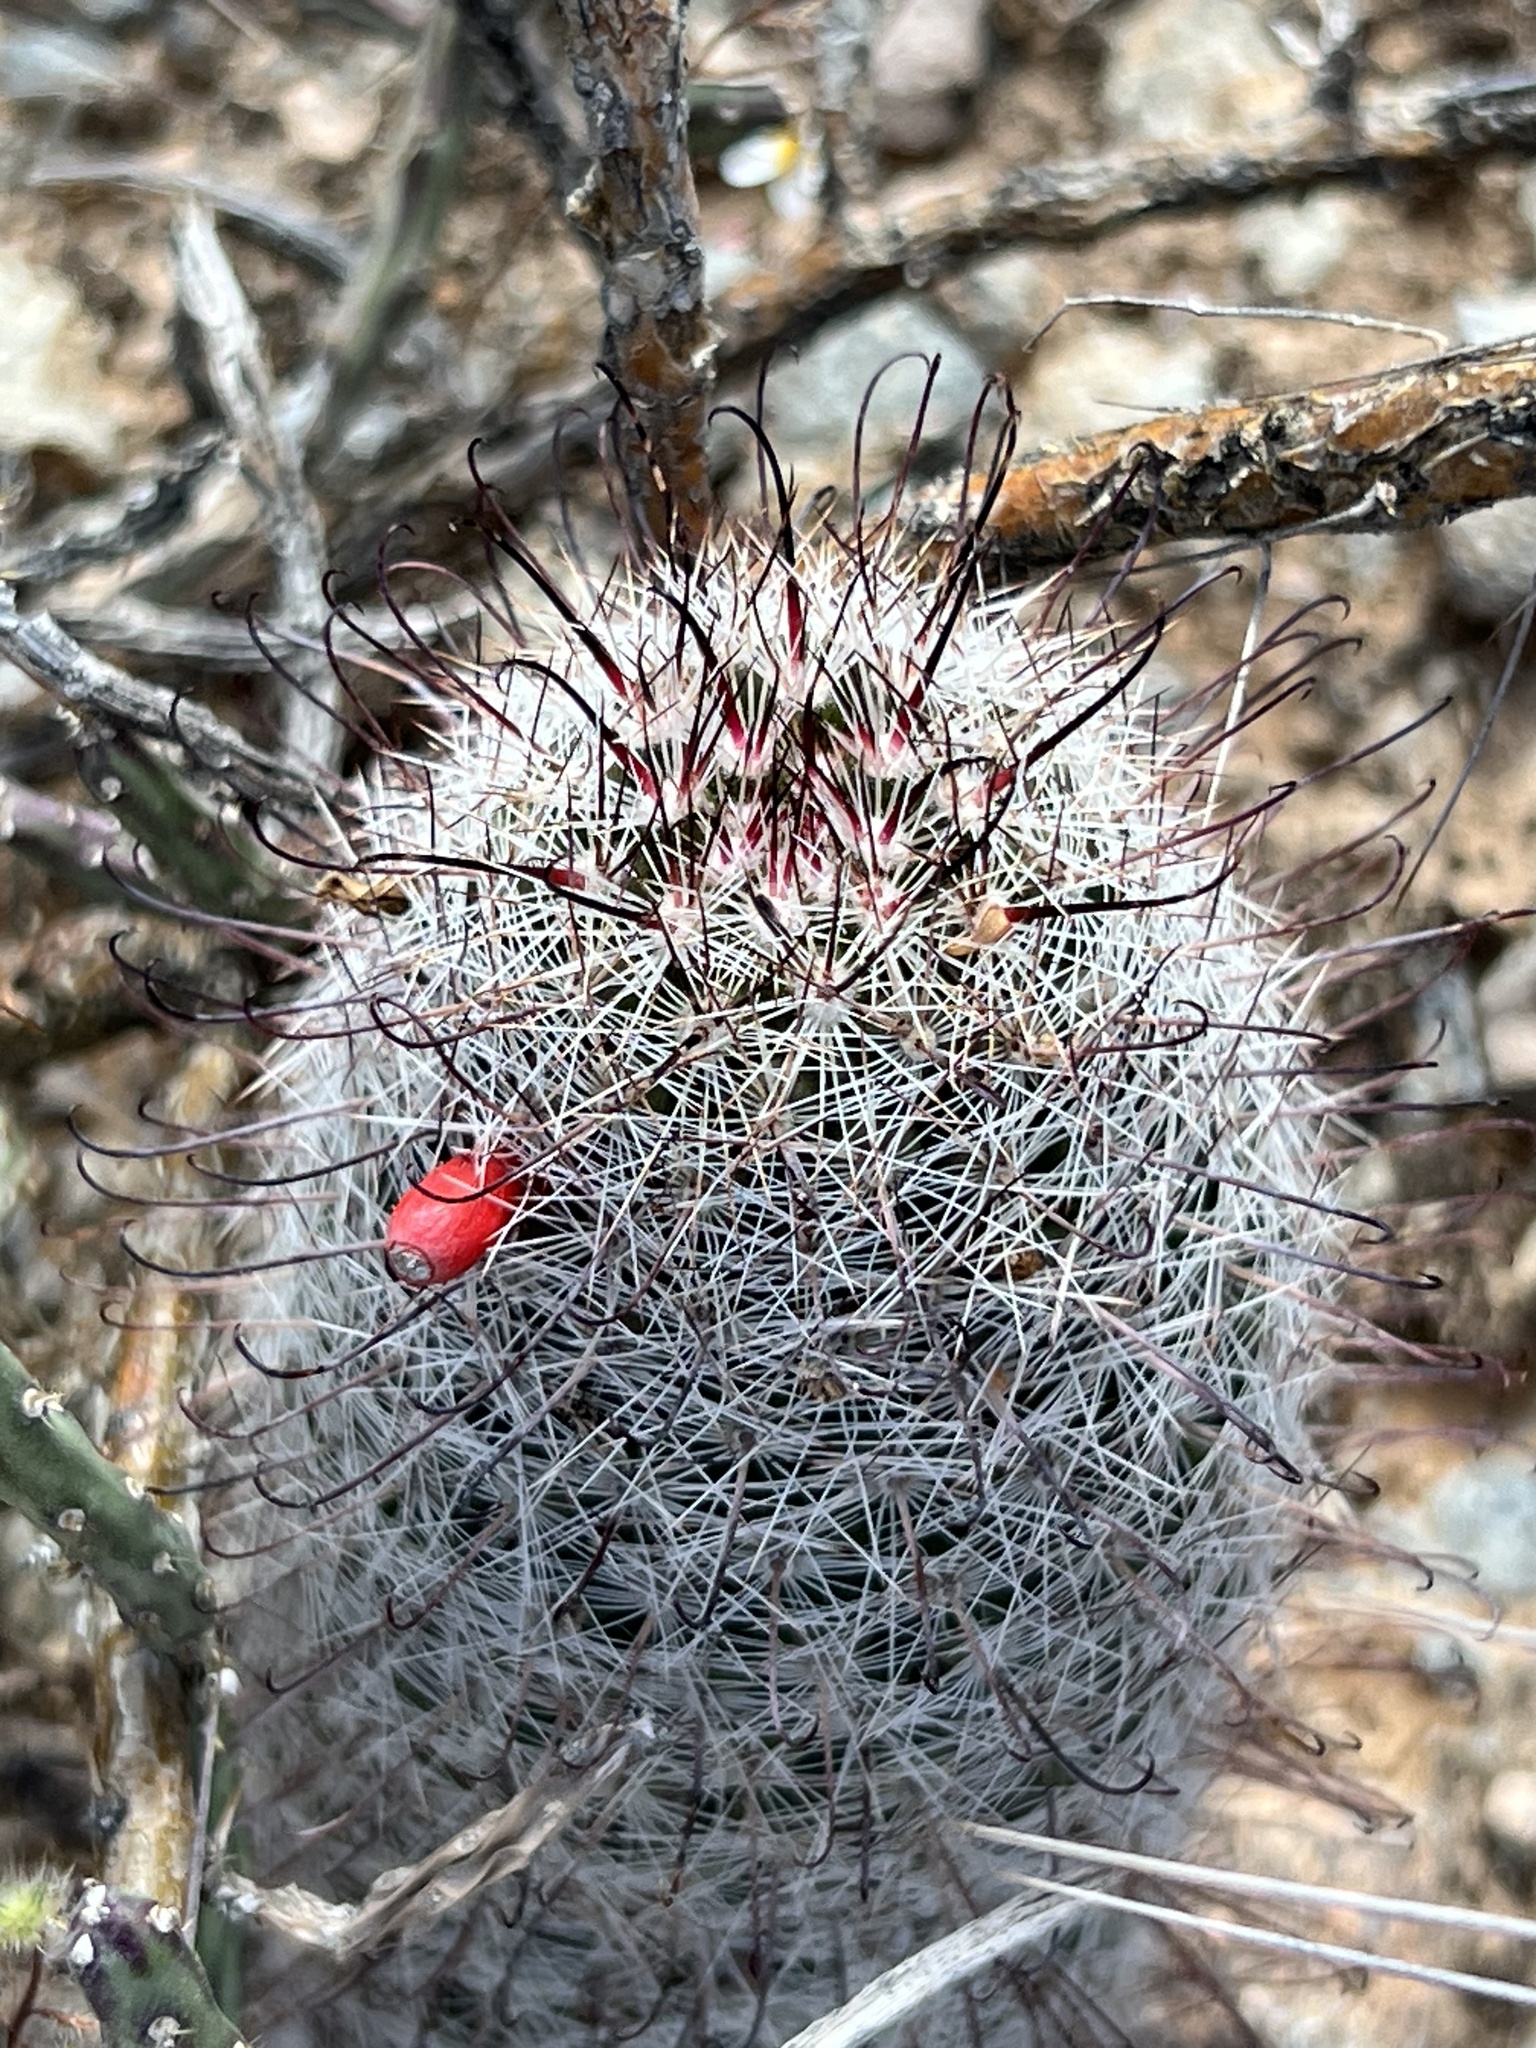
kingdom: Plantae
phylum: Tracheophyta
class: Magnoliopsida
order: Caryophyllales
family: Cactaceae
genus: Cochemiea
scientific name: Cochemiea grahamii
